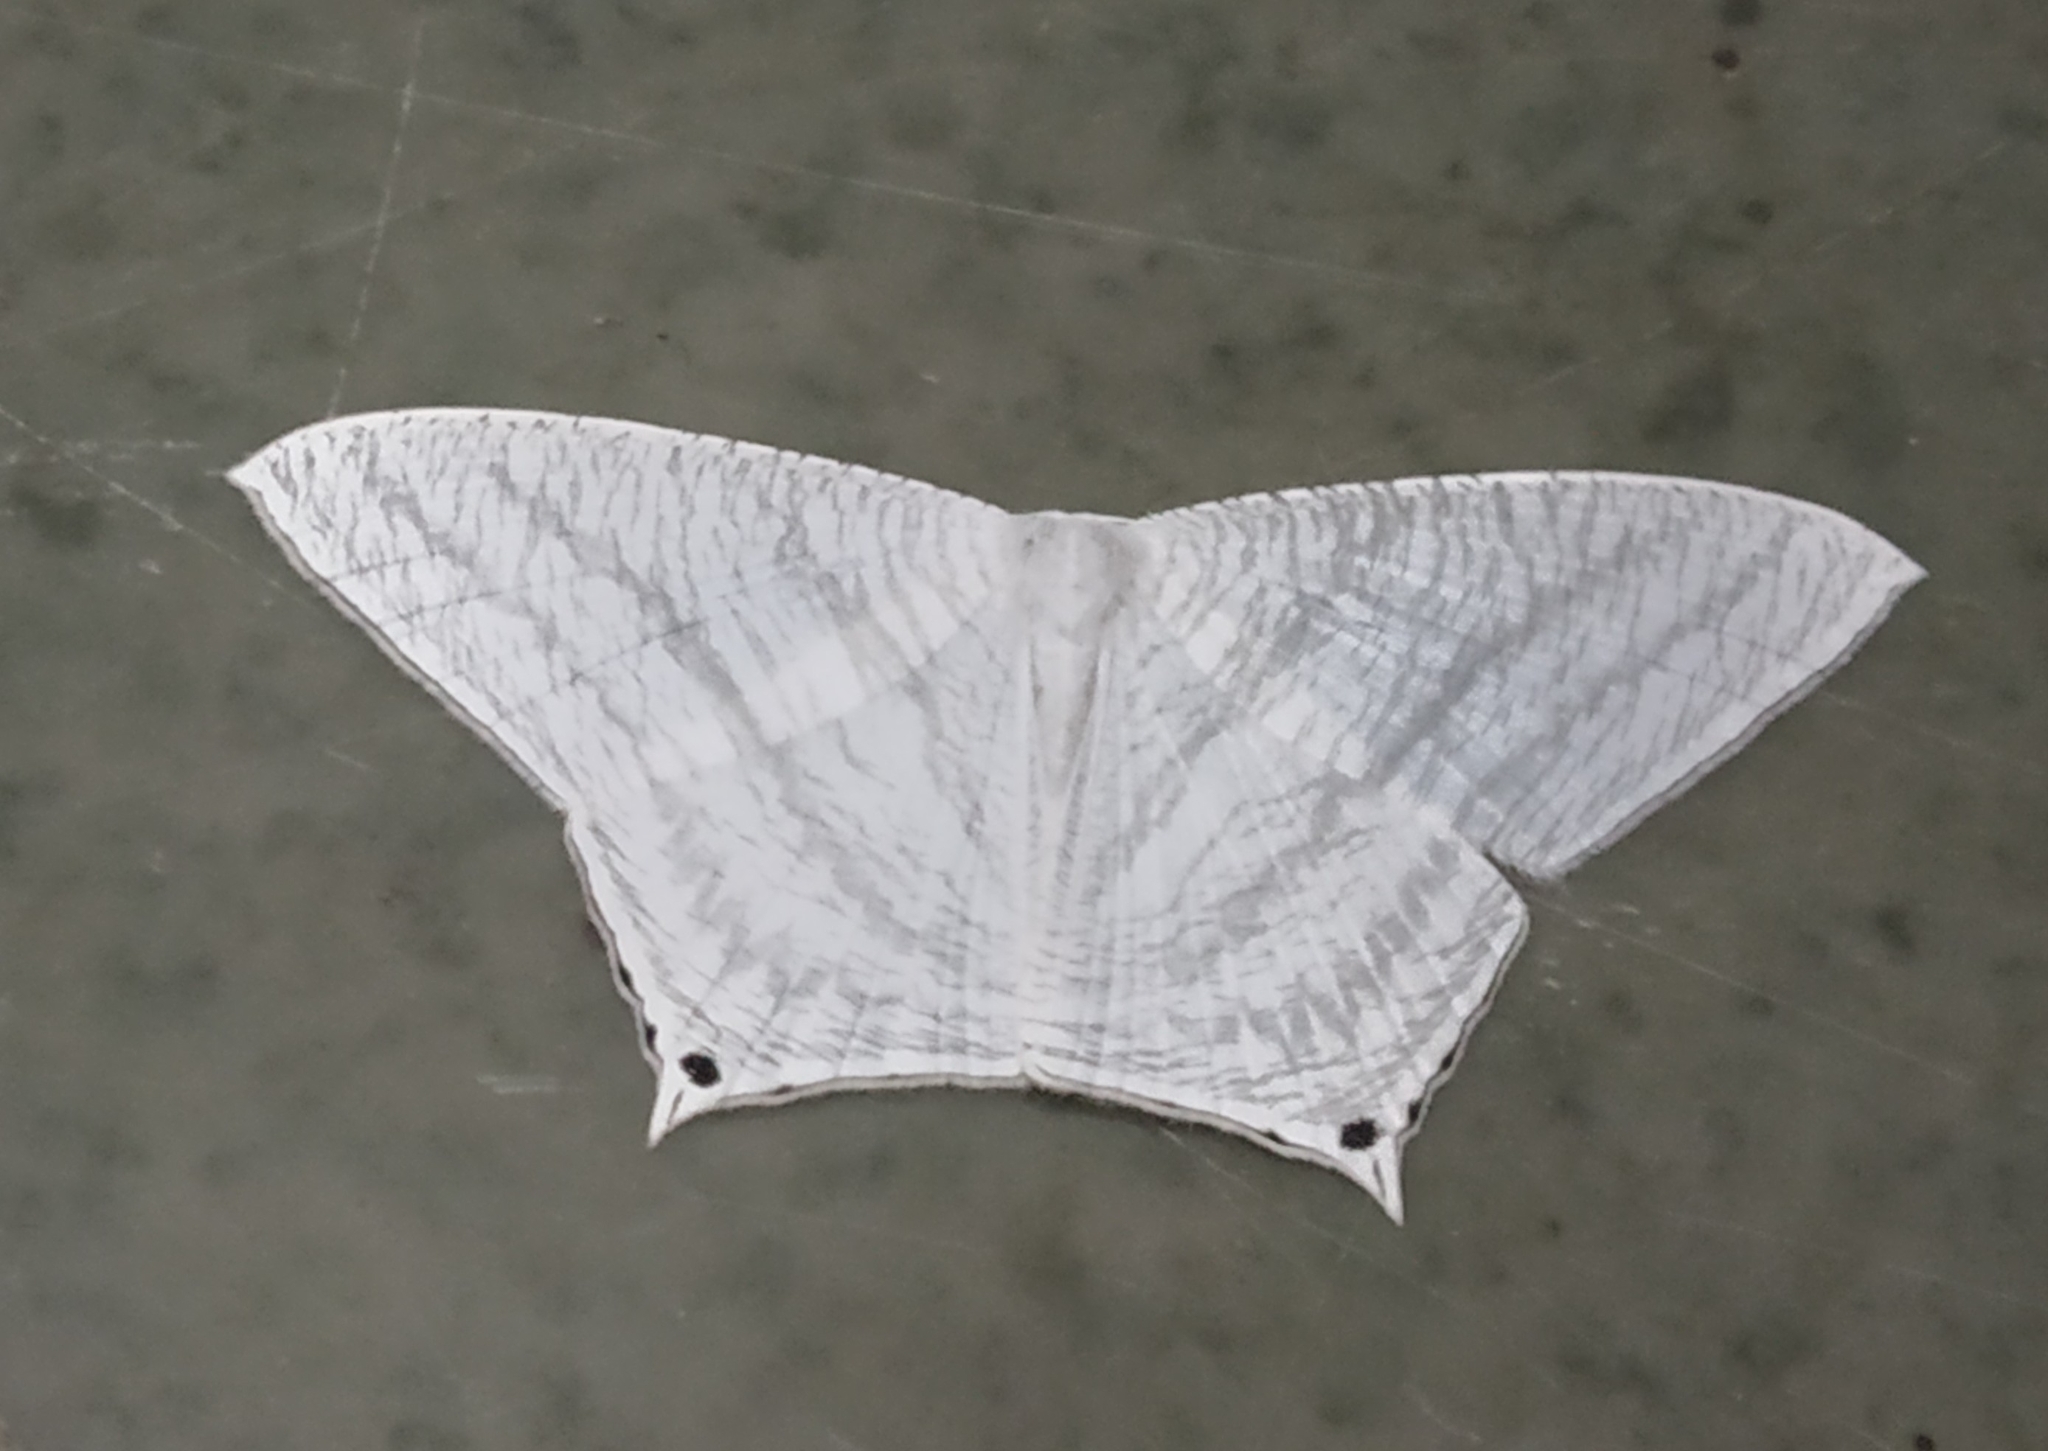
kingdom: Animalia
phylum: Arthropoda
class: Insecta
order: Lepidoptera
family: Uraniidae
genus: Micronia
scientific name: Micronia aculeata
